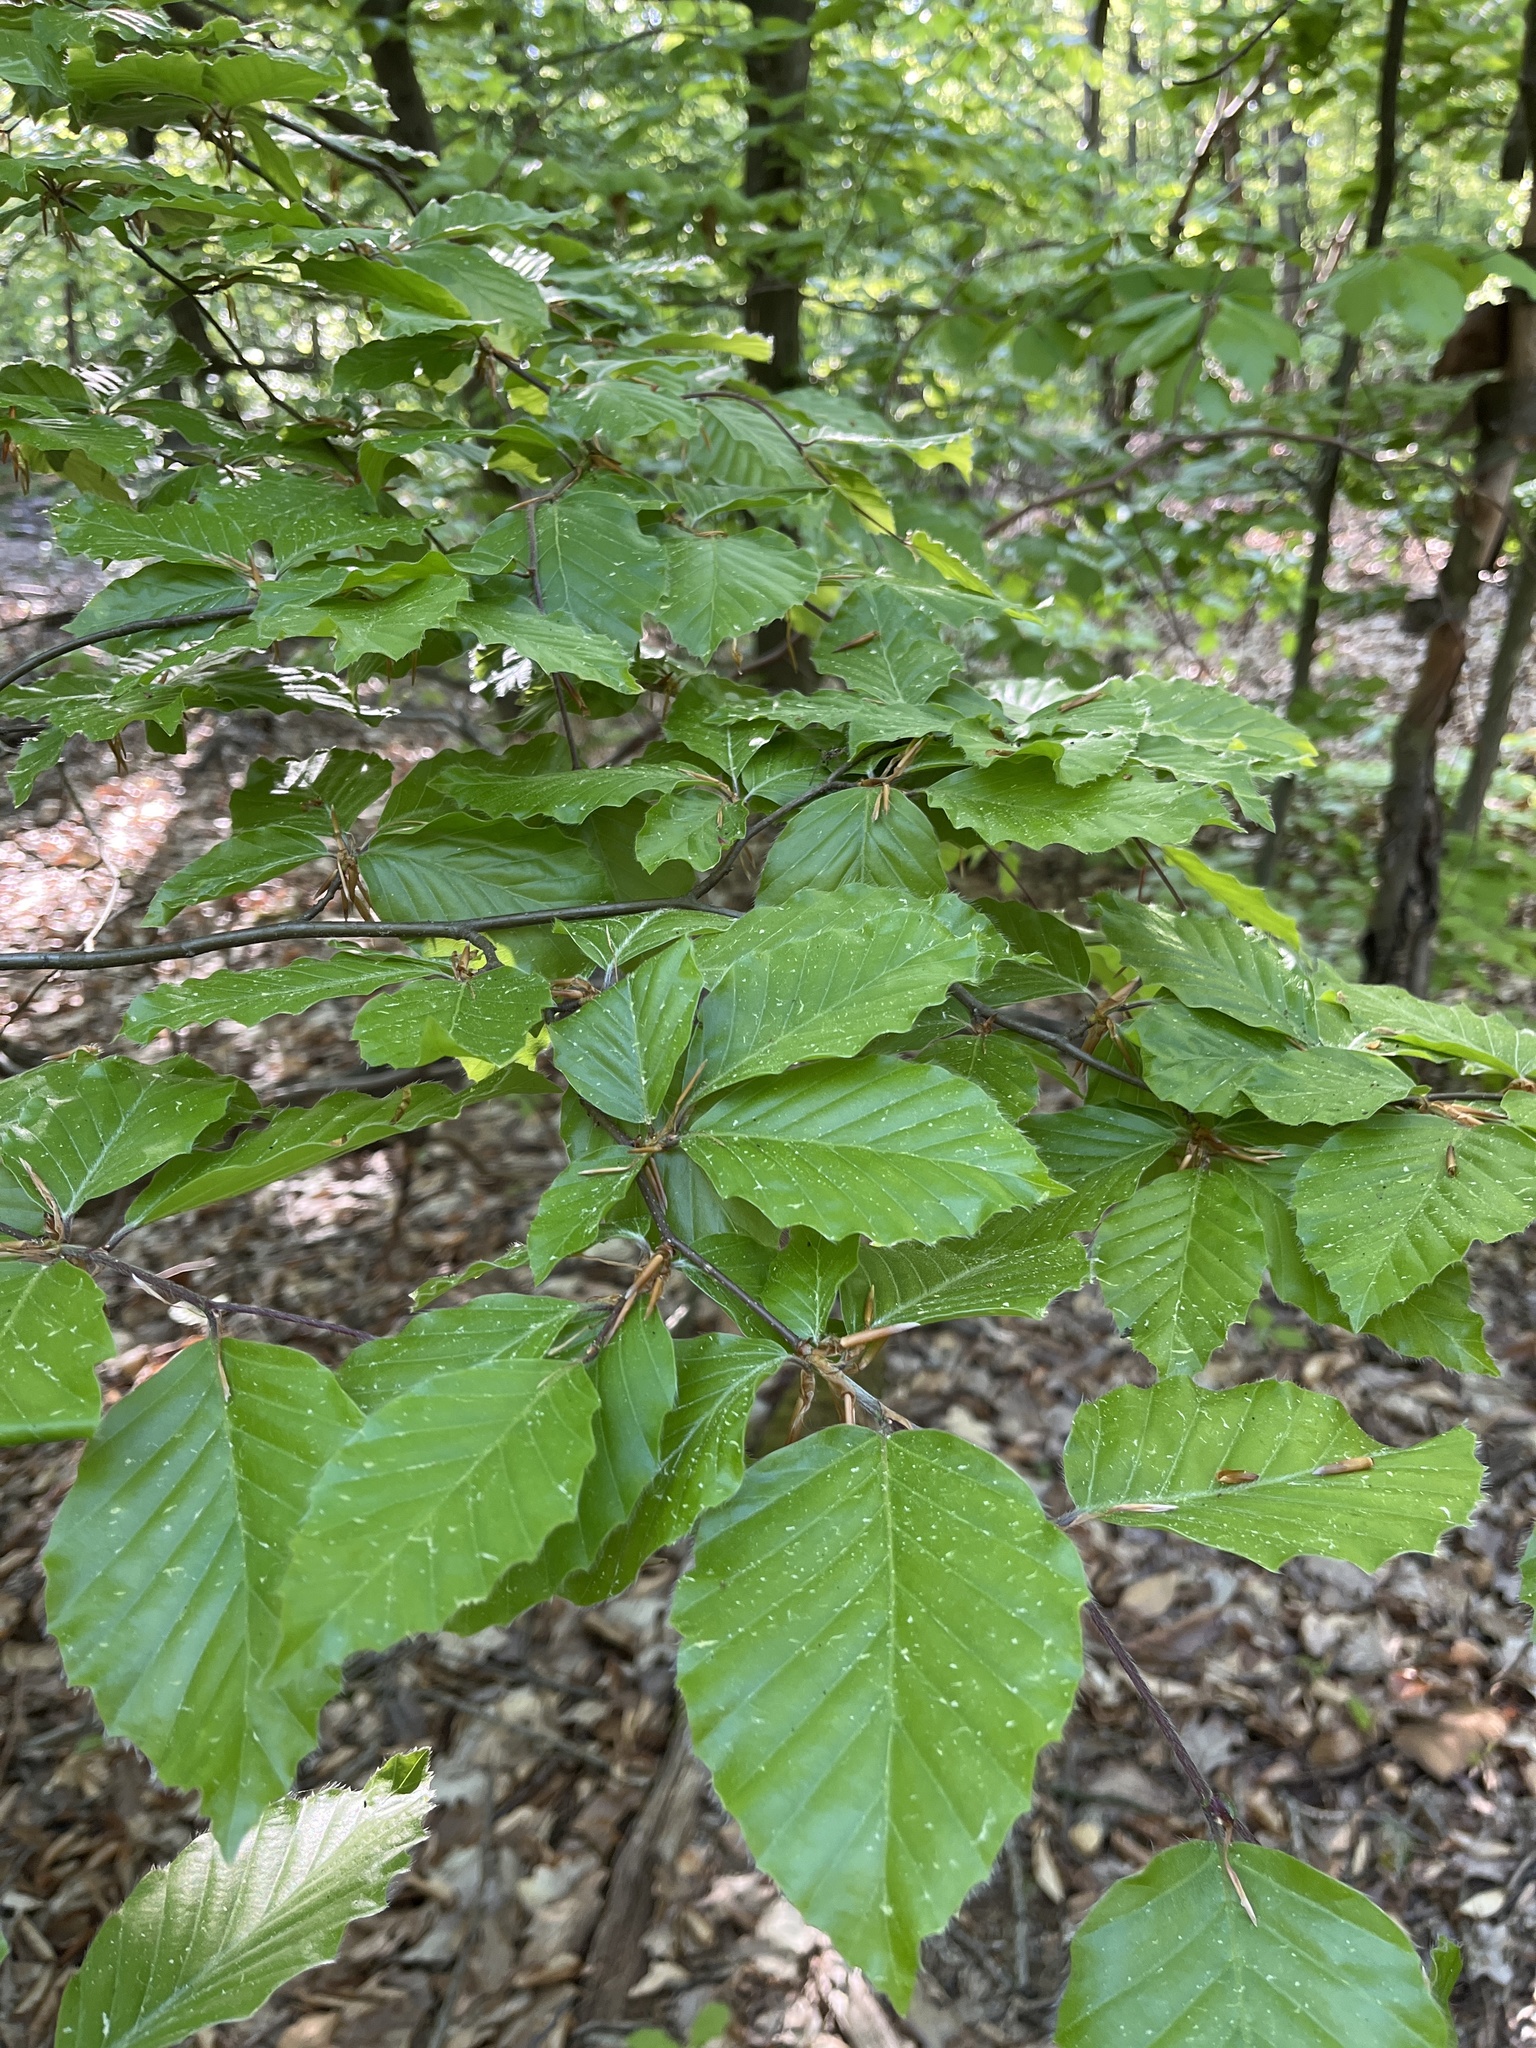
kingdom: Plantae
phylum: Tracheophyta
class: Magnoliopsida
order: Fagales
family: Fagaceae
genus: Fagus
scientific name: Fagus sylvatica
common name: Beech
